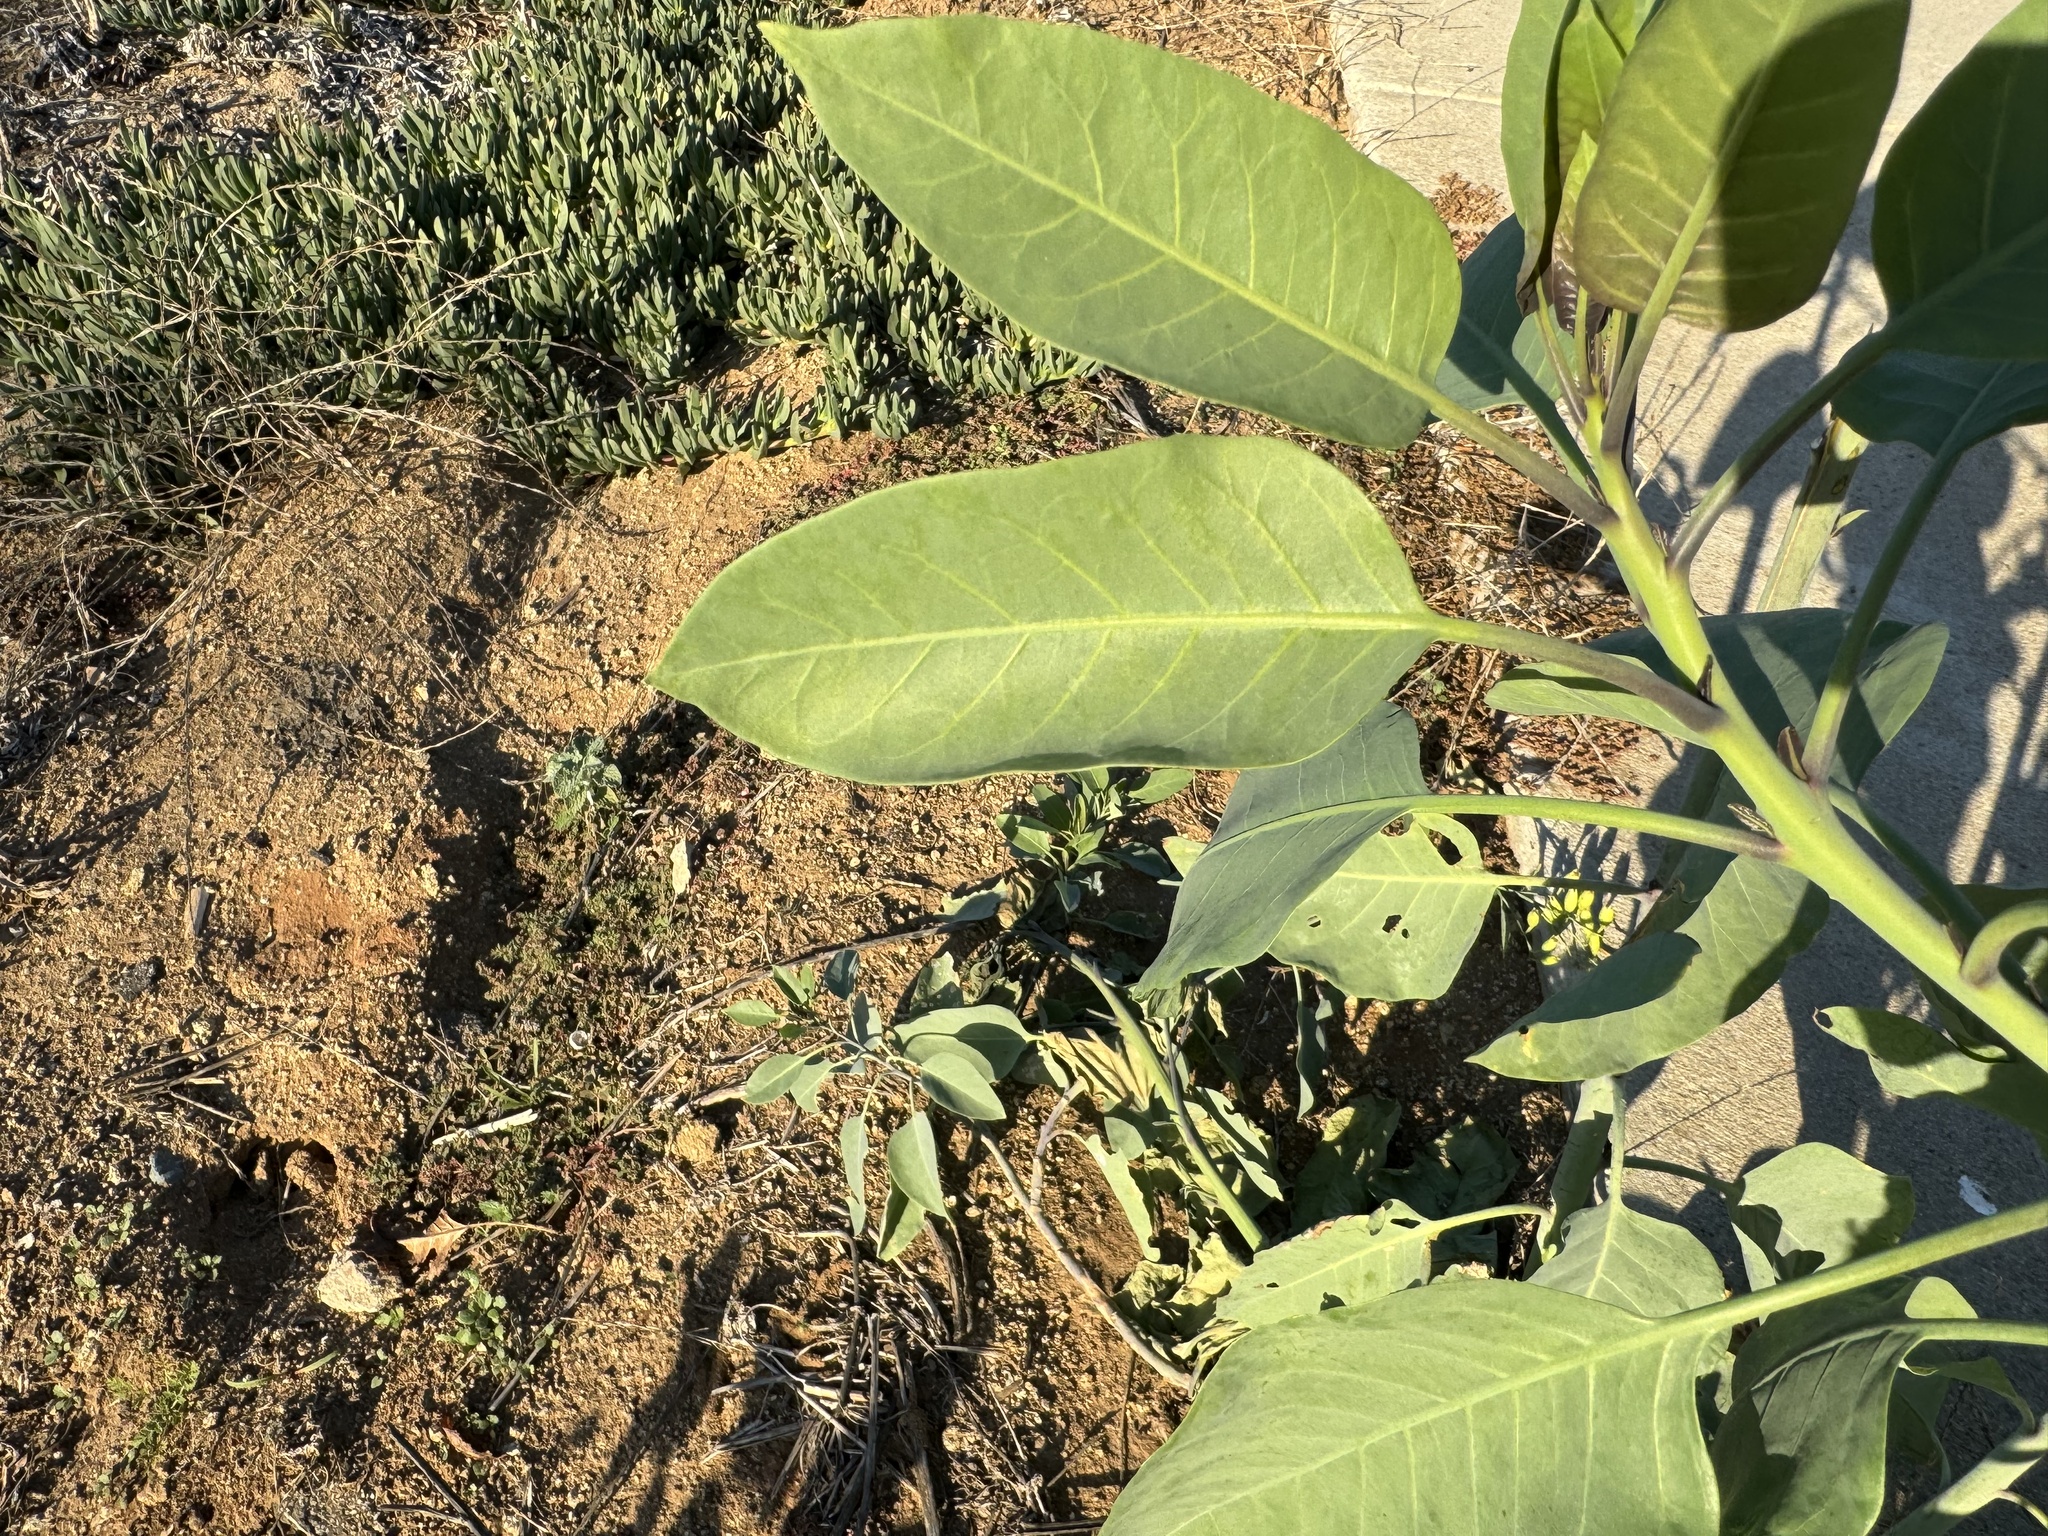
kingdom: Plantae
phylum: Tracheophyta
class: Magnoliopsida
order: Solanales
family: Solanaceae
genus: Nicotiana
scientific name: Nicotiana glauca
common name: Tree tobacco
